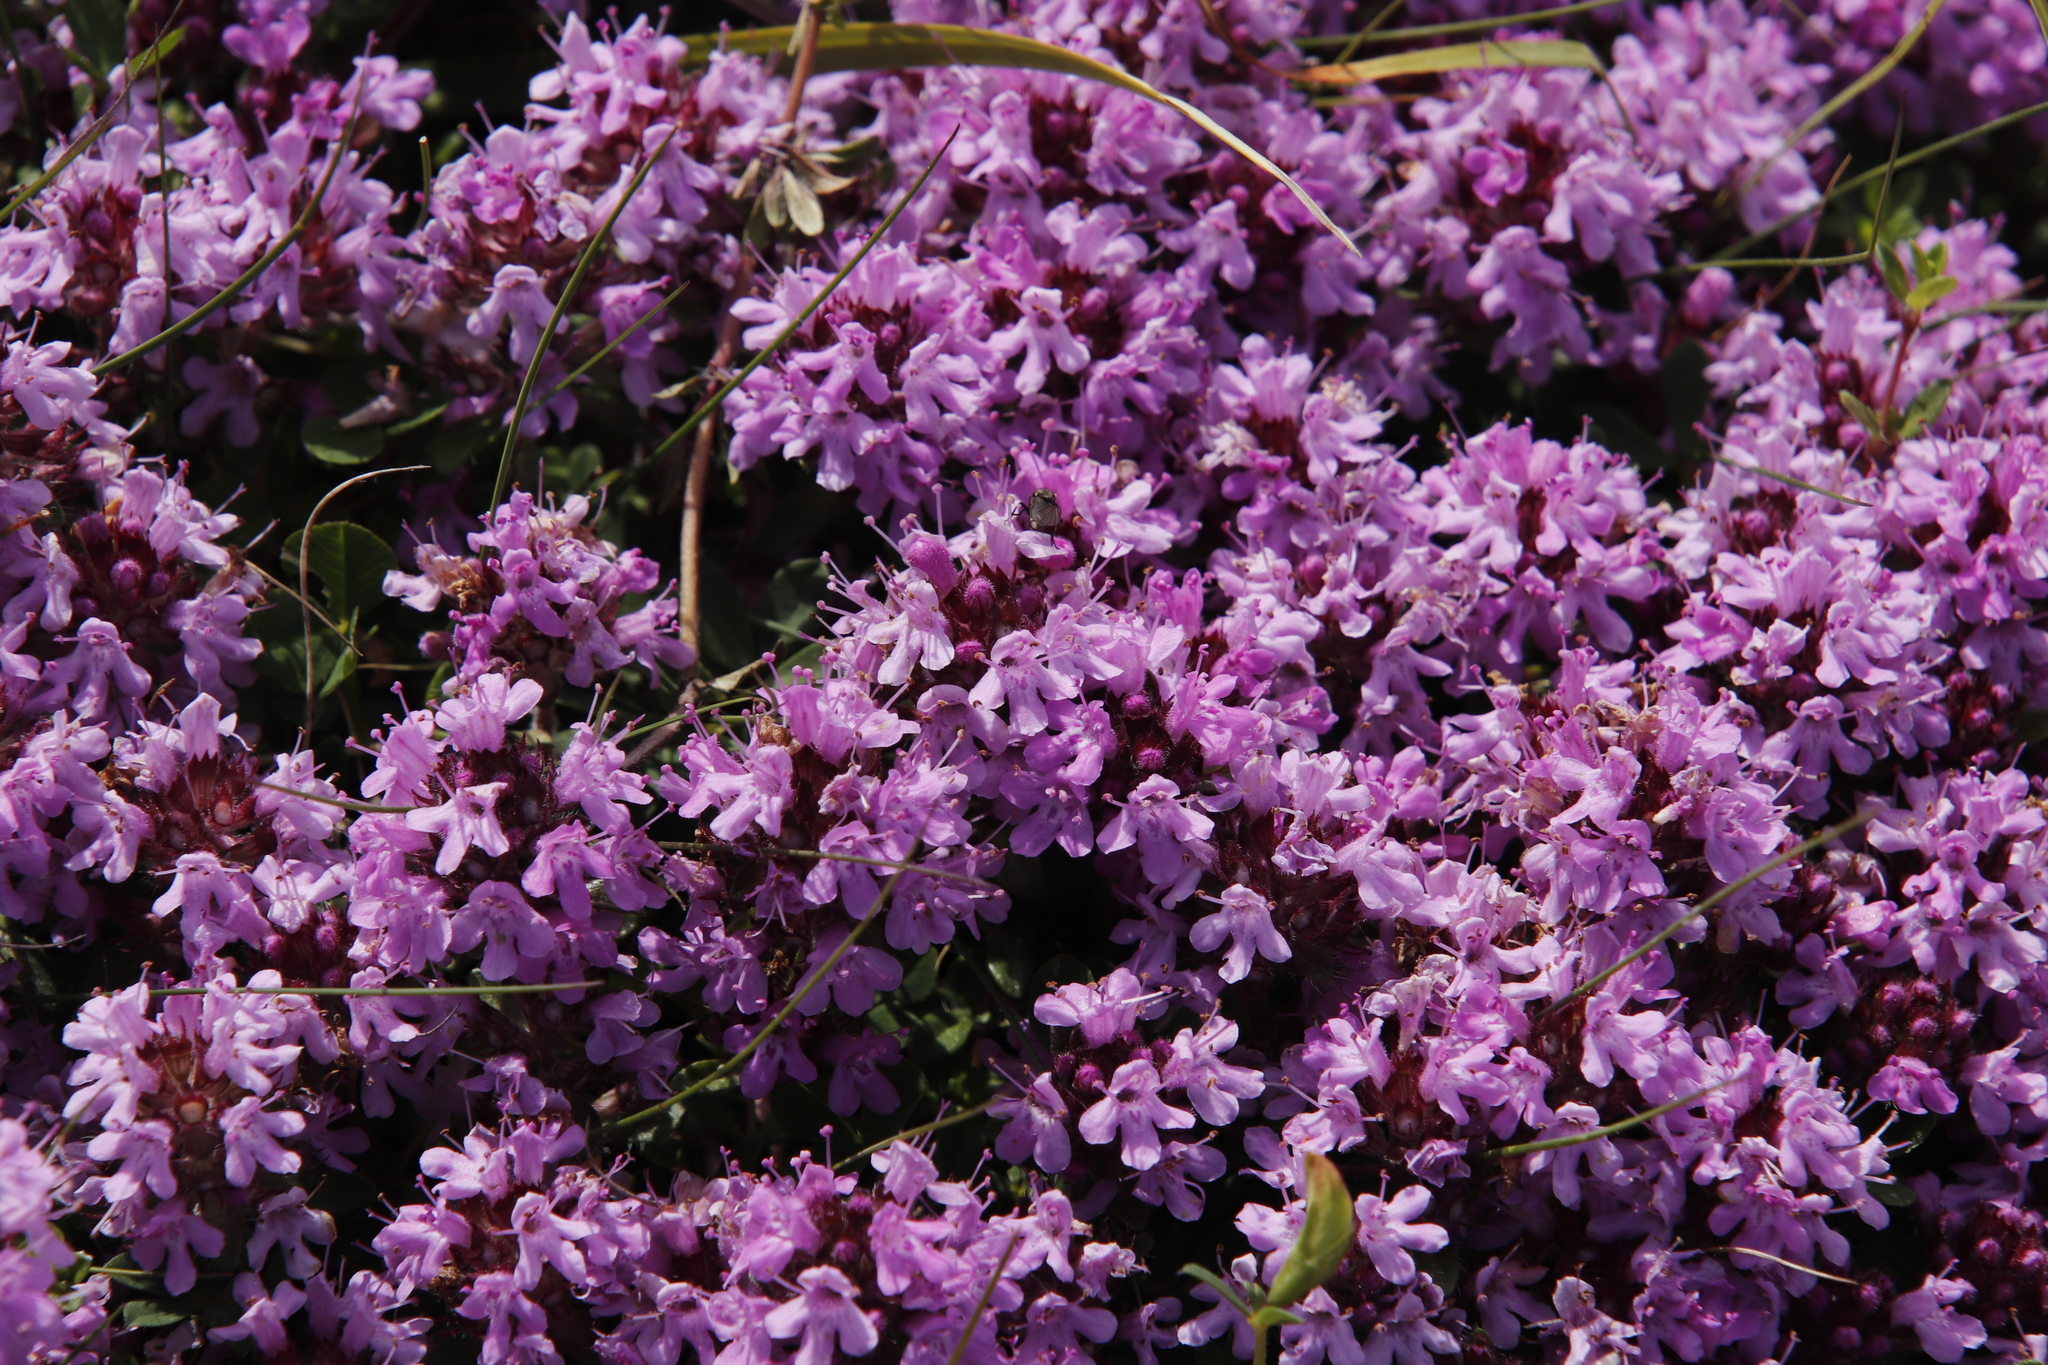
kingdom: Plantae
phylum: Tracheophyta
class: Magnoliopsida
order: Lamiales
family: Lamiaceae
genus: Thymus
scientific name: Thymus praecox
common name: Wild thyme
